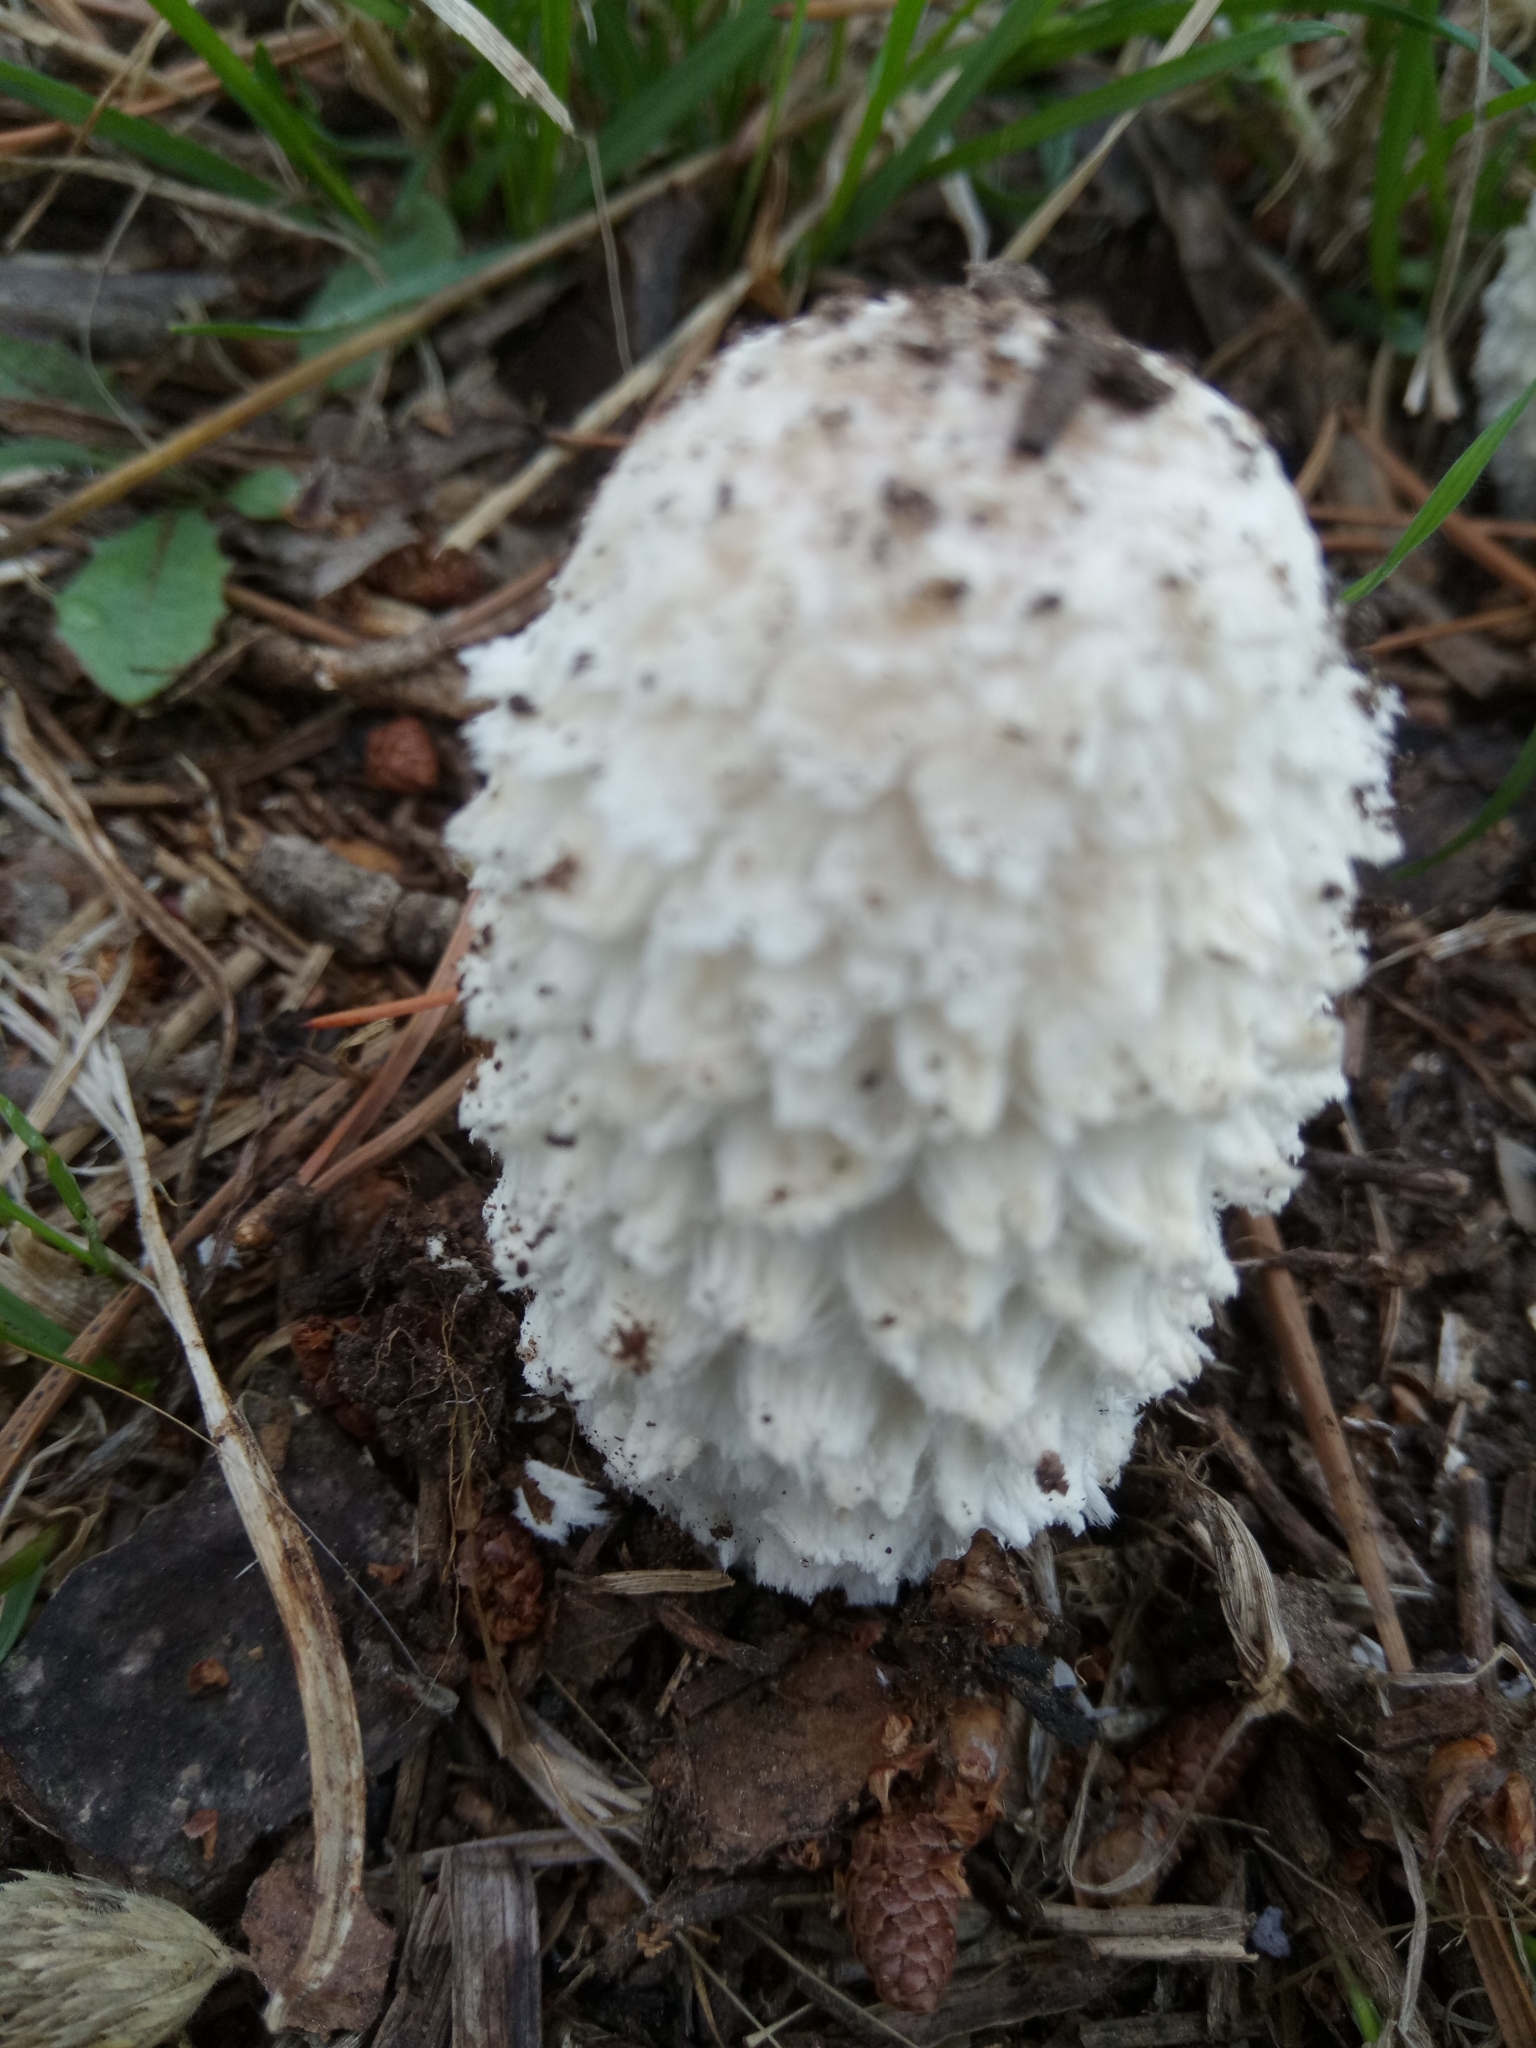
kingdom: Fungi
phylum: Basidiomycota
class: Agaricomycetes
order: Agaricales
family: Agaricaceae
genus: Coprinus
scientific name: Coprinus comatus
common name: Lawyer's wig
